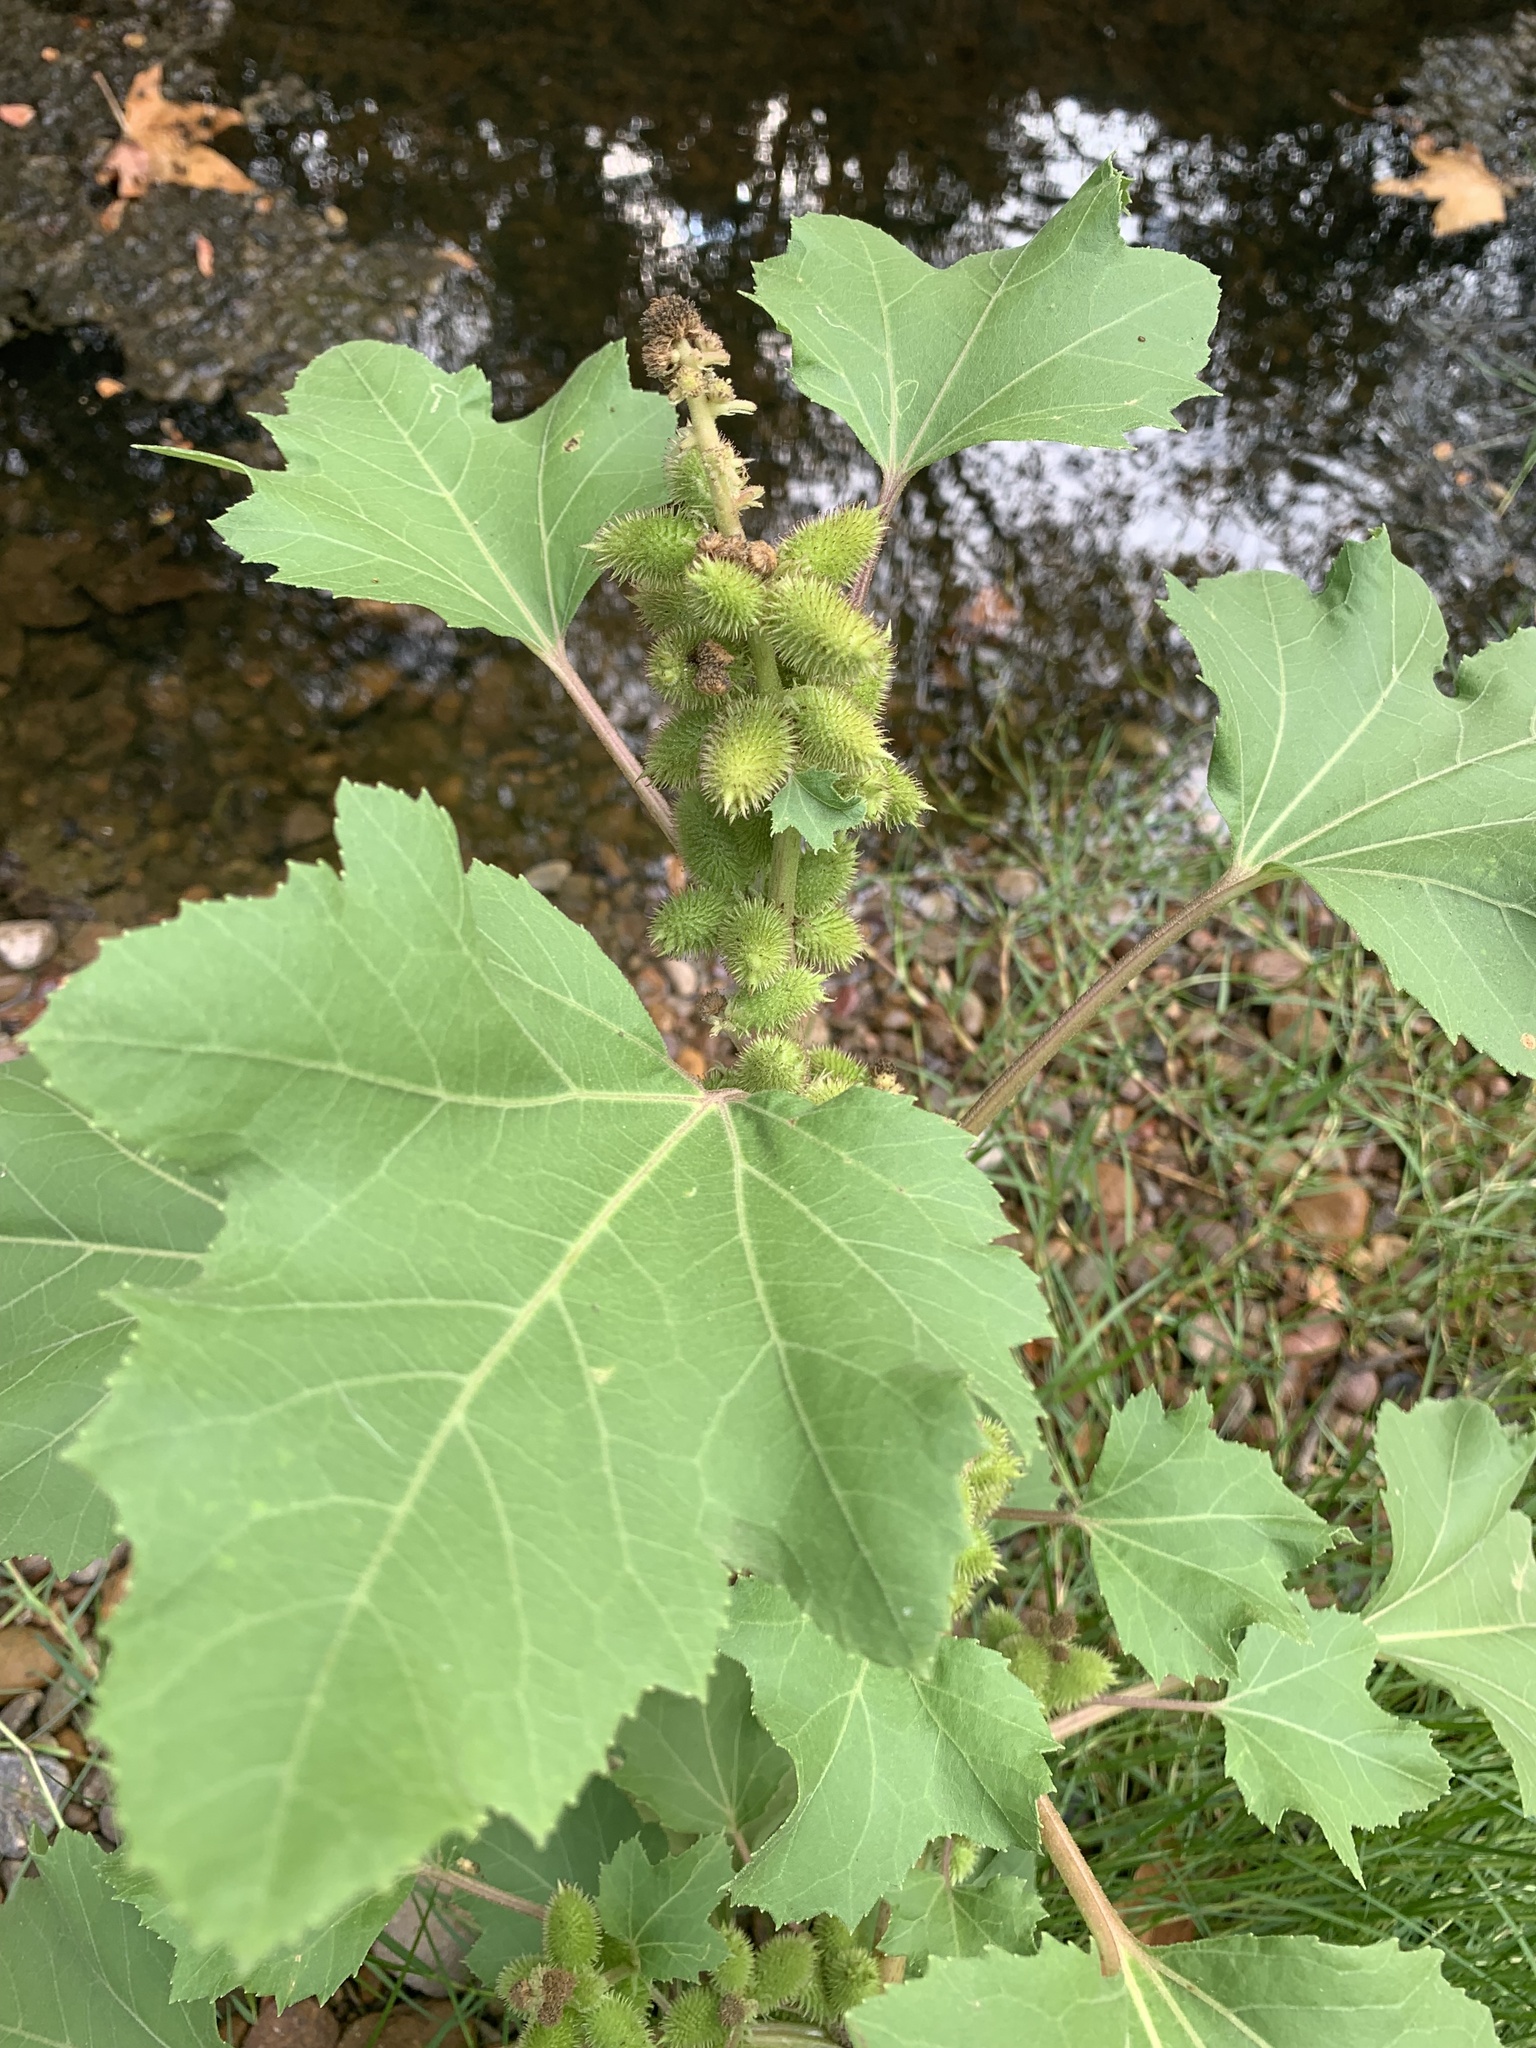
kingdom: Plantae
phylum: Tracheophyta
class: Magnoliopsida
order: Asterales
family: Asteraceae
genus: Xanthium
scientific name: Xanthium strumarium
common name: Rough cocklebur
